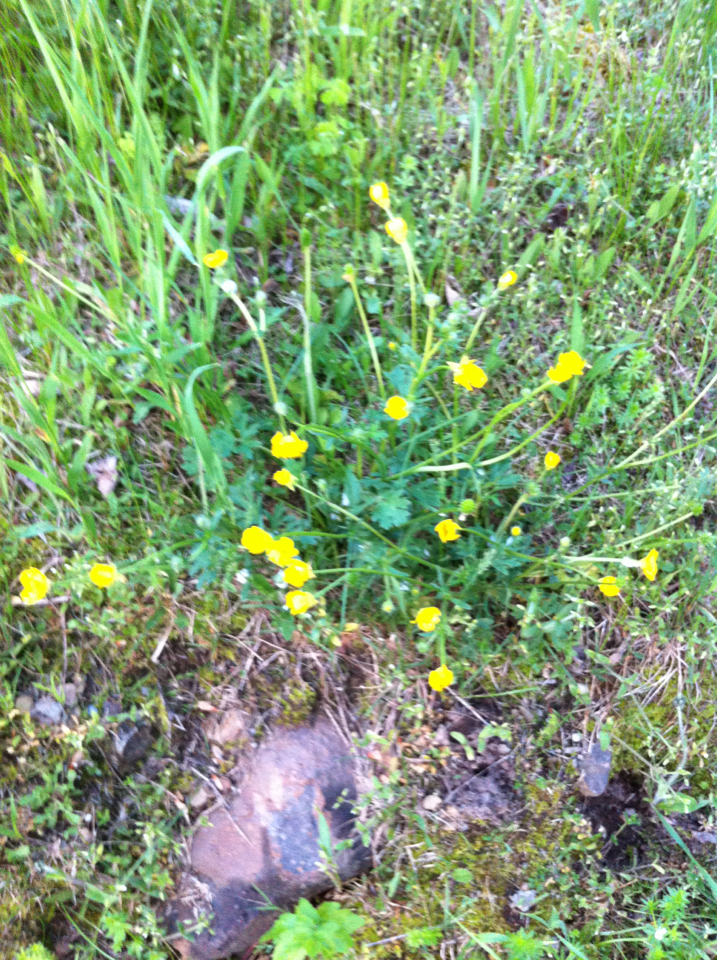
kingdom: Plantae
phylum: Tracheophyta
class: Magnoliopsida
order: Ranunculales
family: Ranunculaceae
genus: Ranunculus
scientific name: Ranunculus acris
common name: Meadow buttercup
